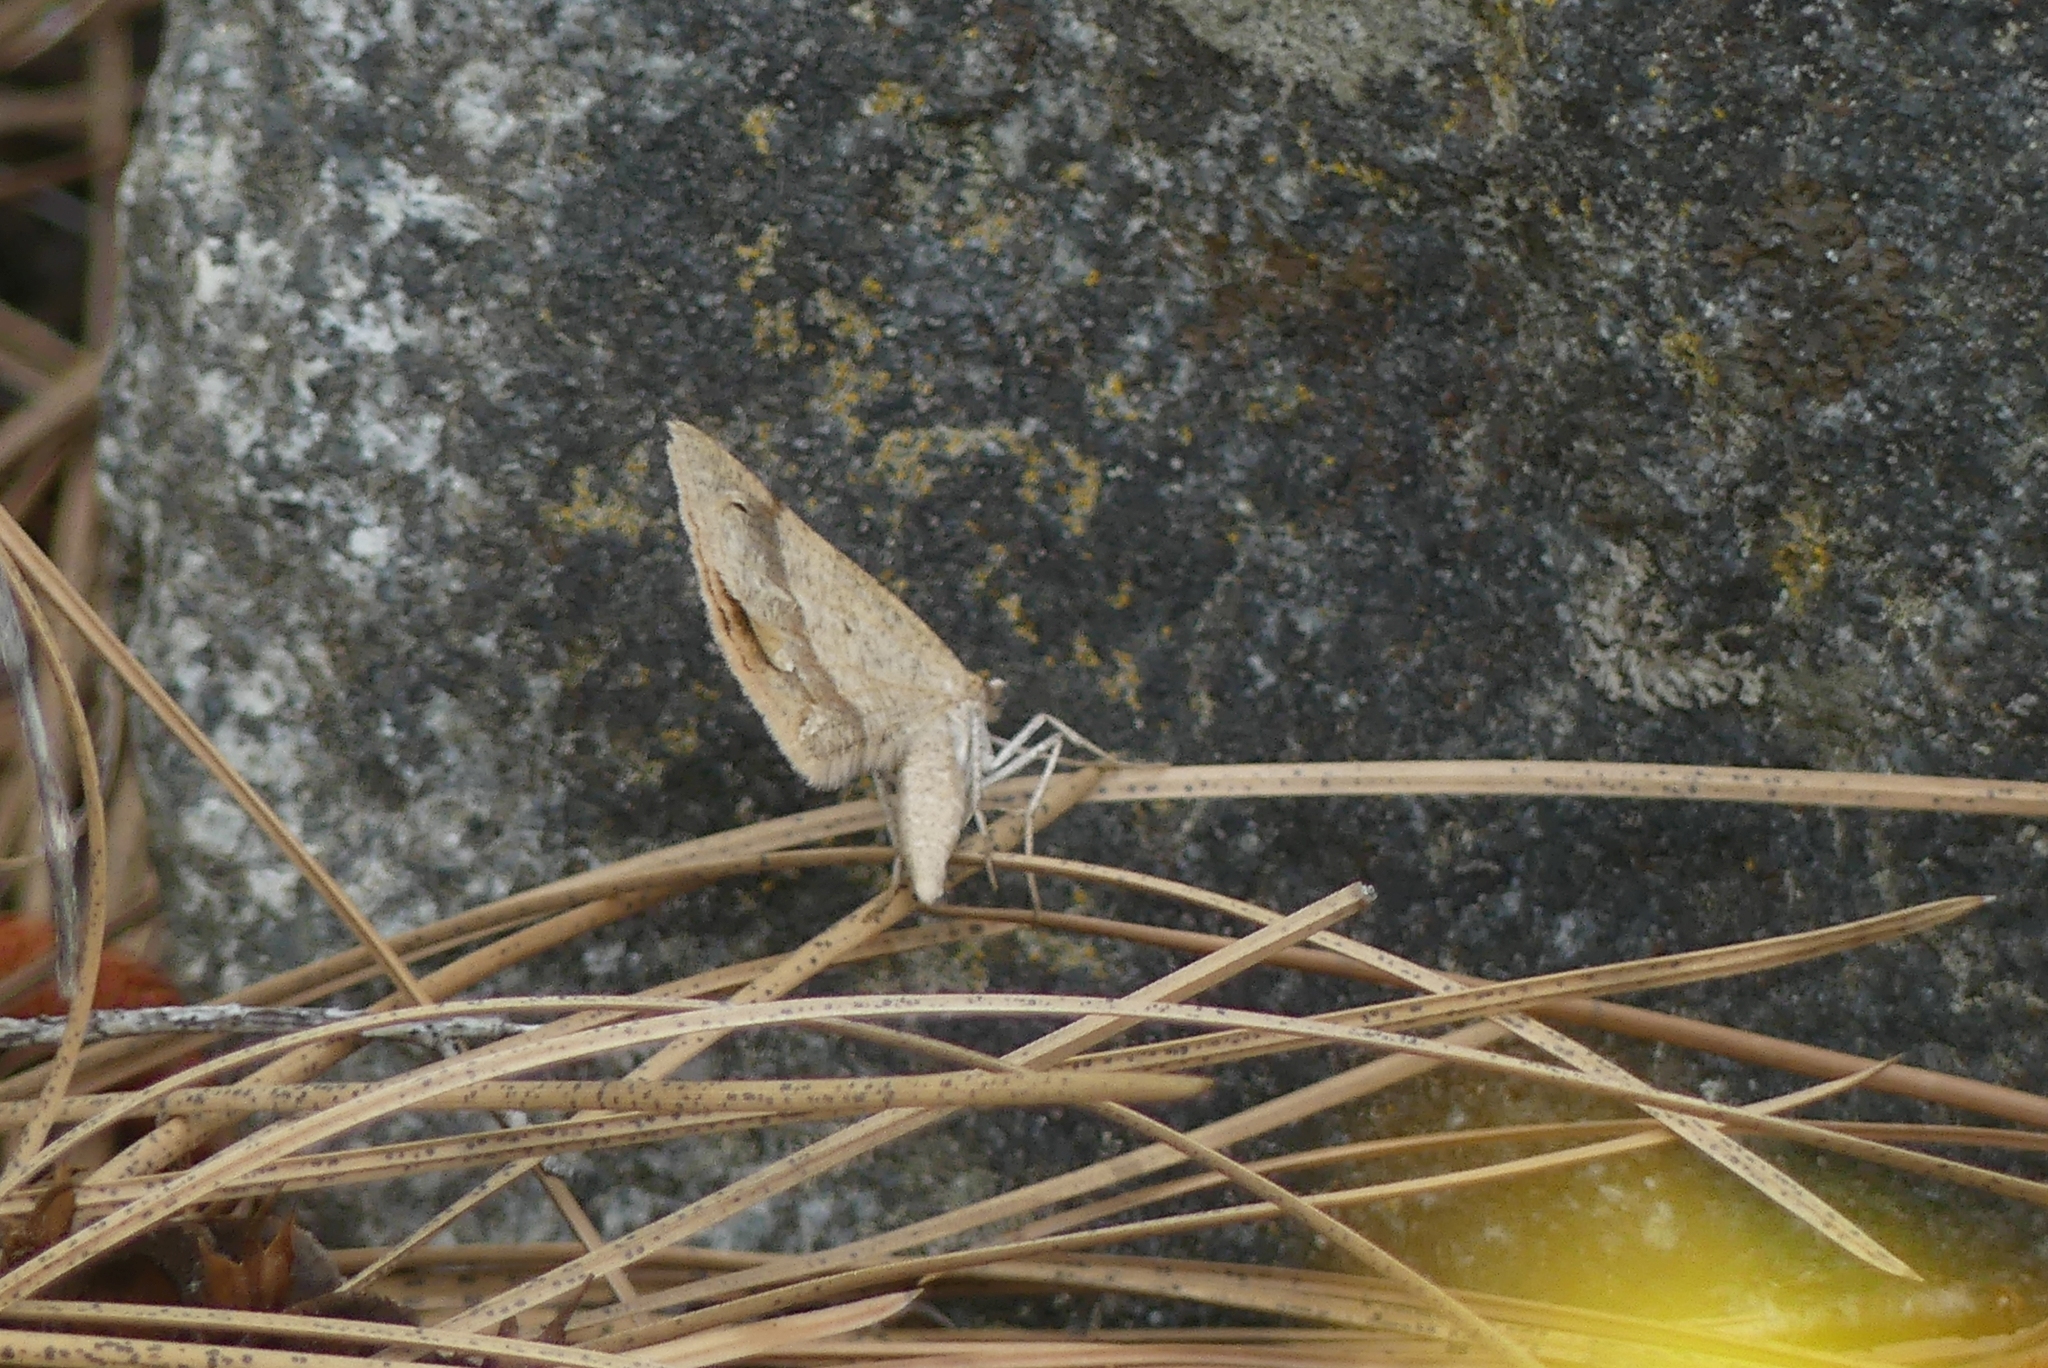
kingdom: Animalia
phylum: Arthropoda
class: Insecta
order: Lepidoptera
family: Geometridae
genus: Sericosema
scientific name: Sericosema juturnaria
